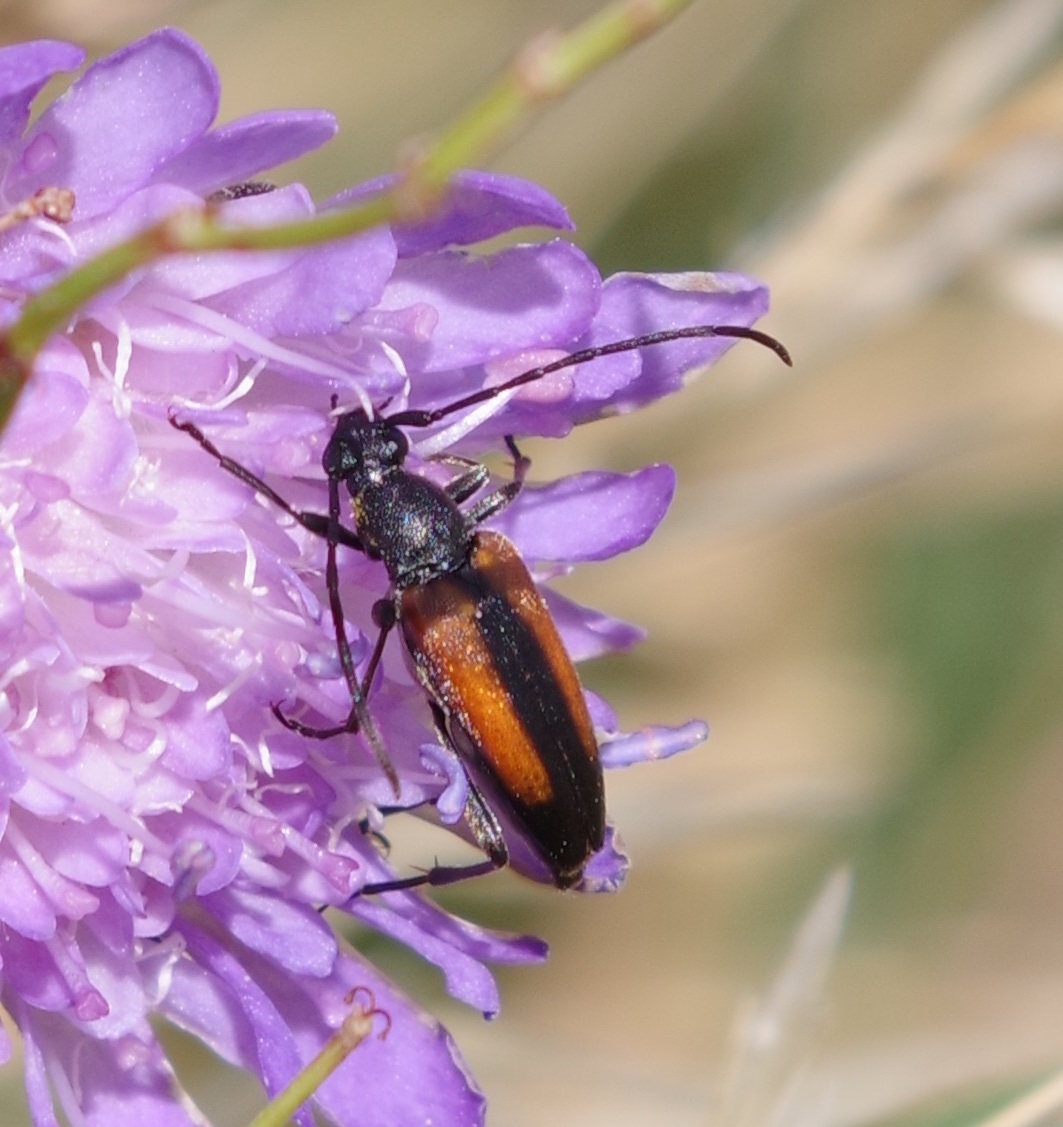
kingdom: Animalia
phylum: Arthropoda
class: Insecta
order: Coleoptera
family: Cerambycidae
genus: Stenurella
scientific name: Stenurella melanura
